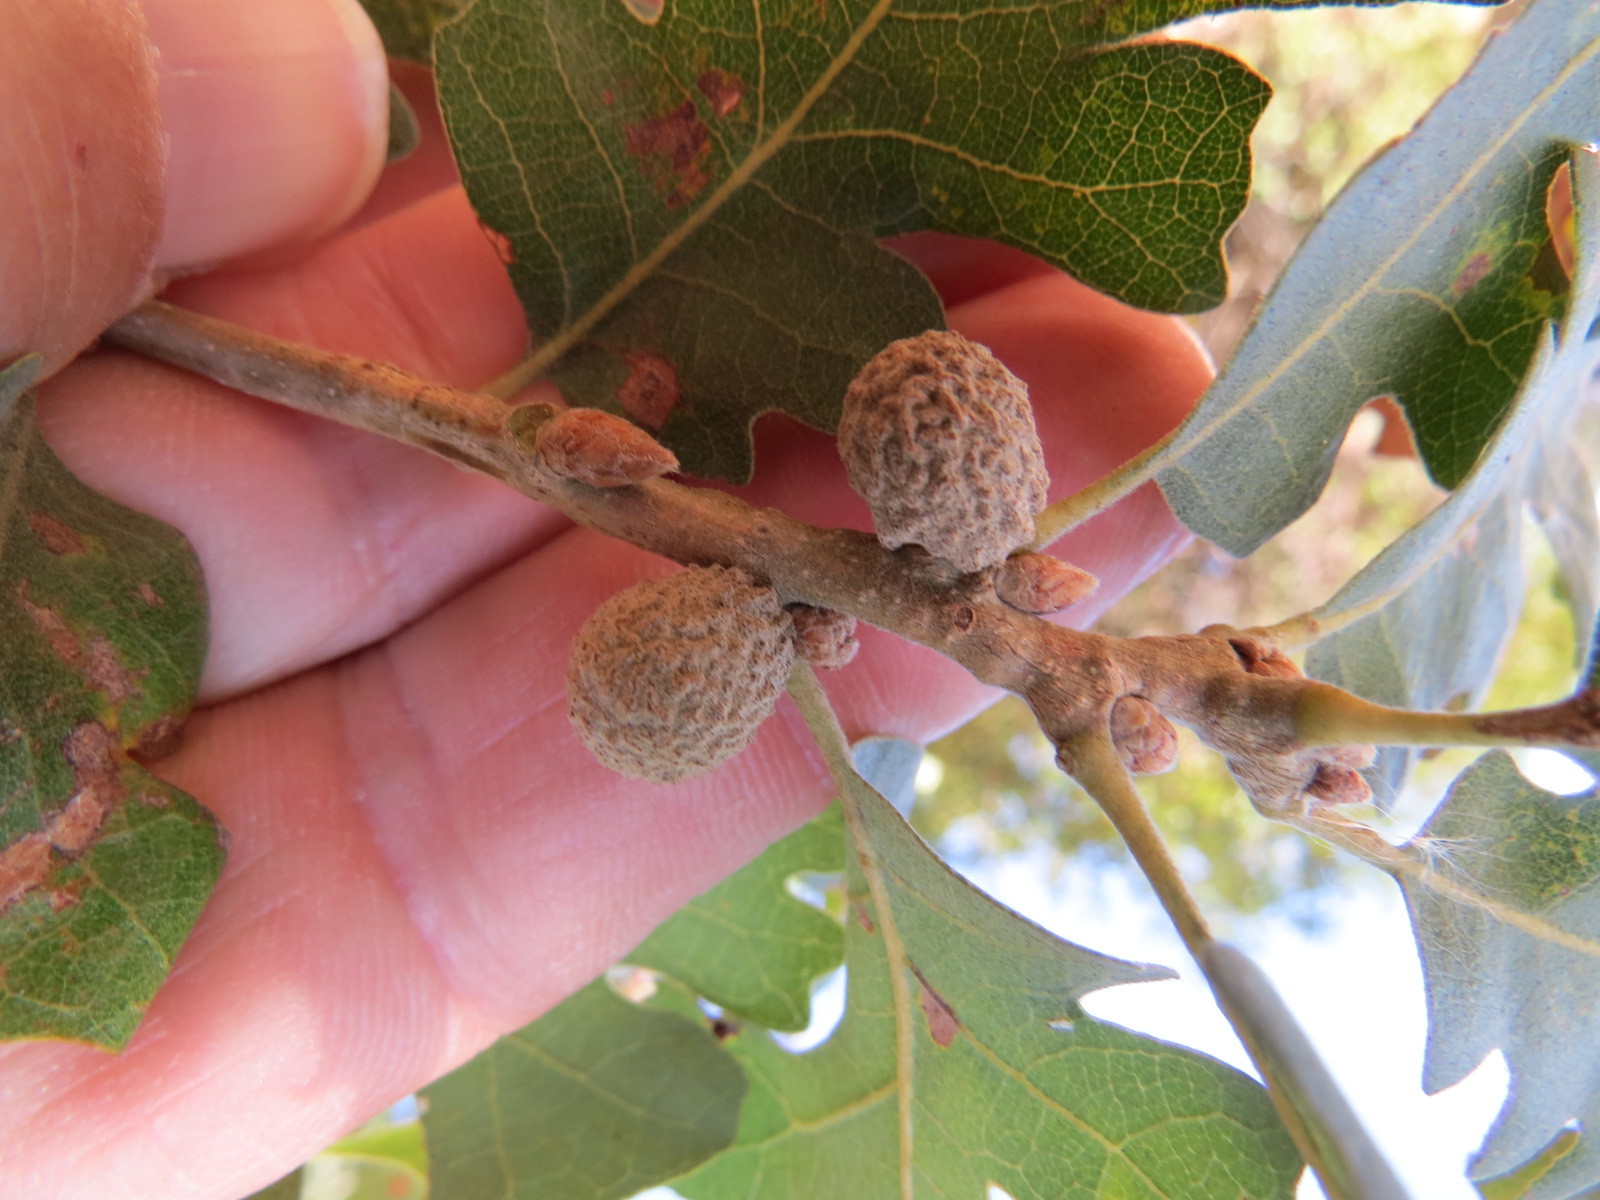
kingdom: Animalia
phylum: Arthropoda
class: Insecta
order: Hymenoptera
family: Cynipidae
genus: Cynips
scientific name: Cynips conspicua
